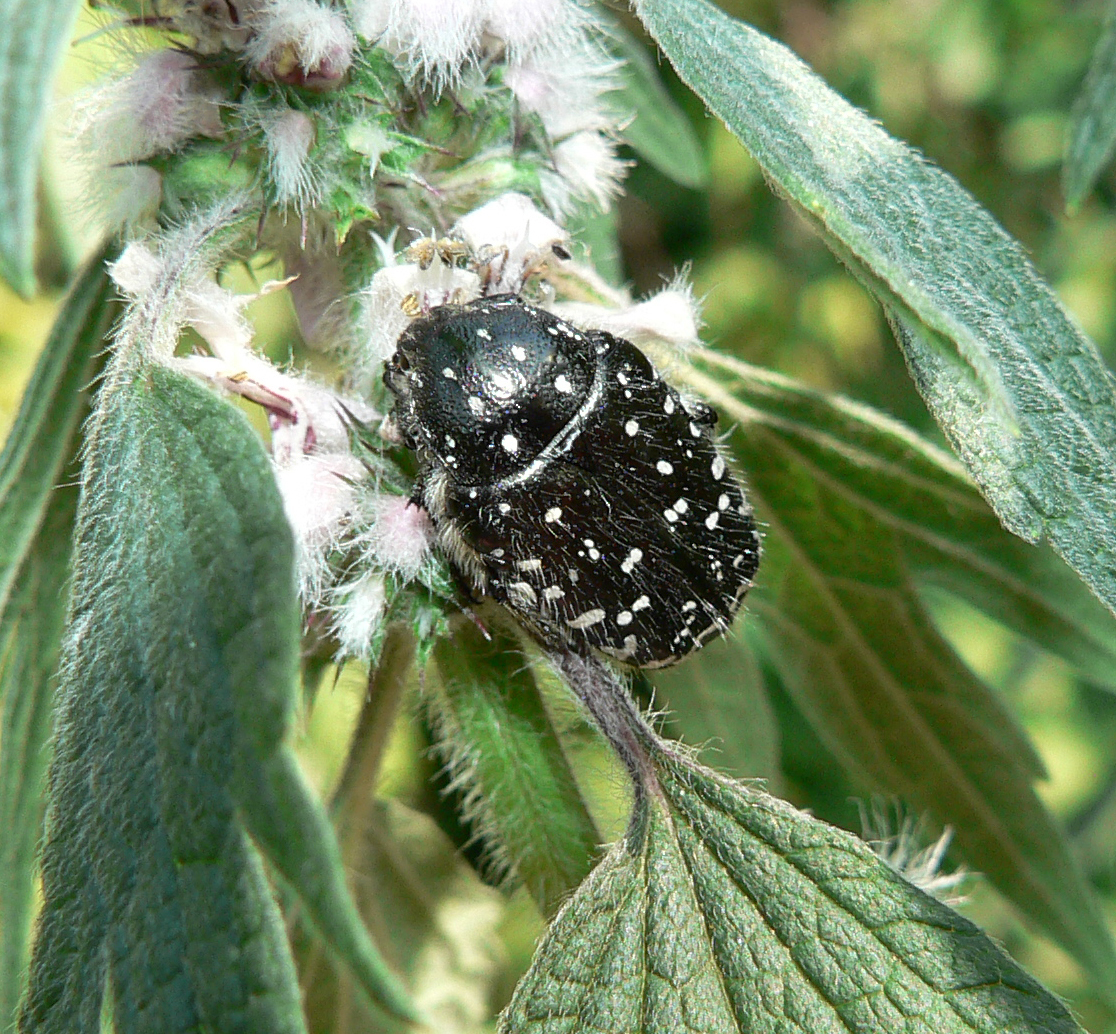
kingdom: Animalia
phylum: Arthropoda
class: Insecta
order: Coleoptera
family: Scarabaeidae
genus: Oxythyrea
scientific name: Oxythyrea funesta
